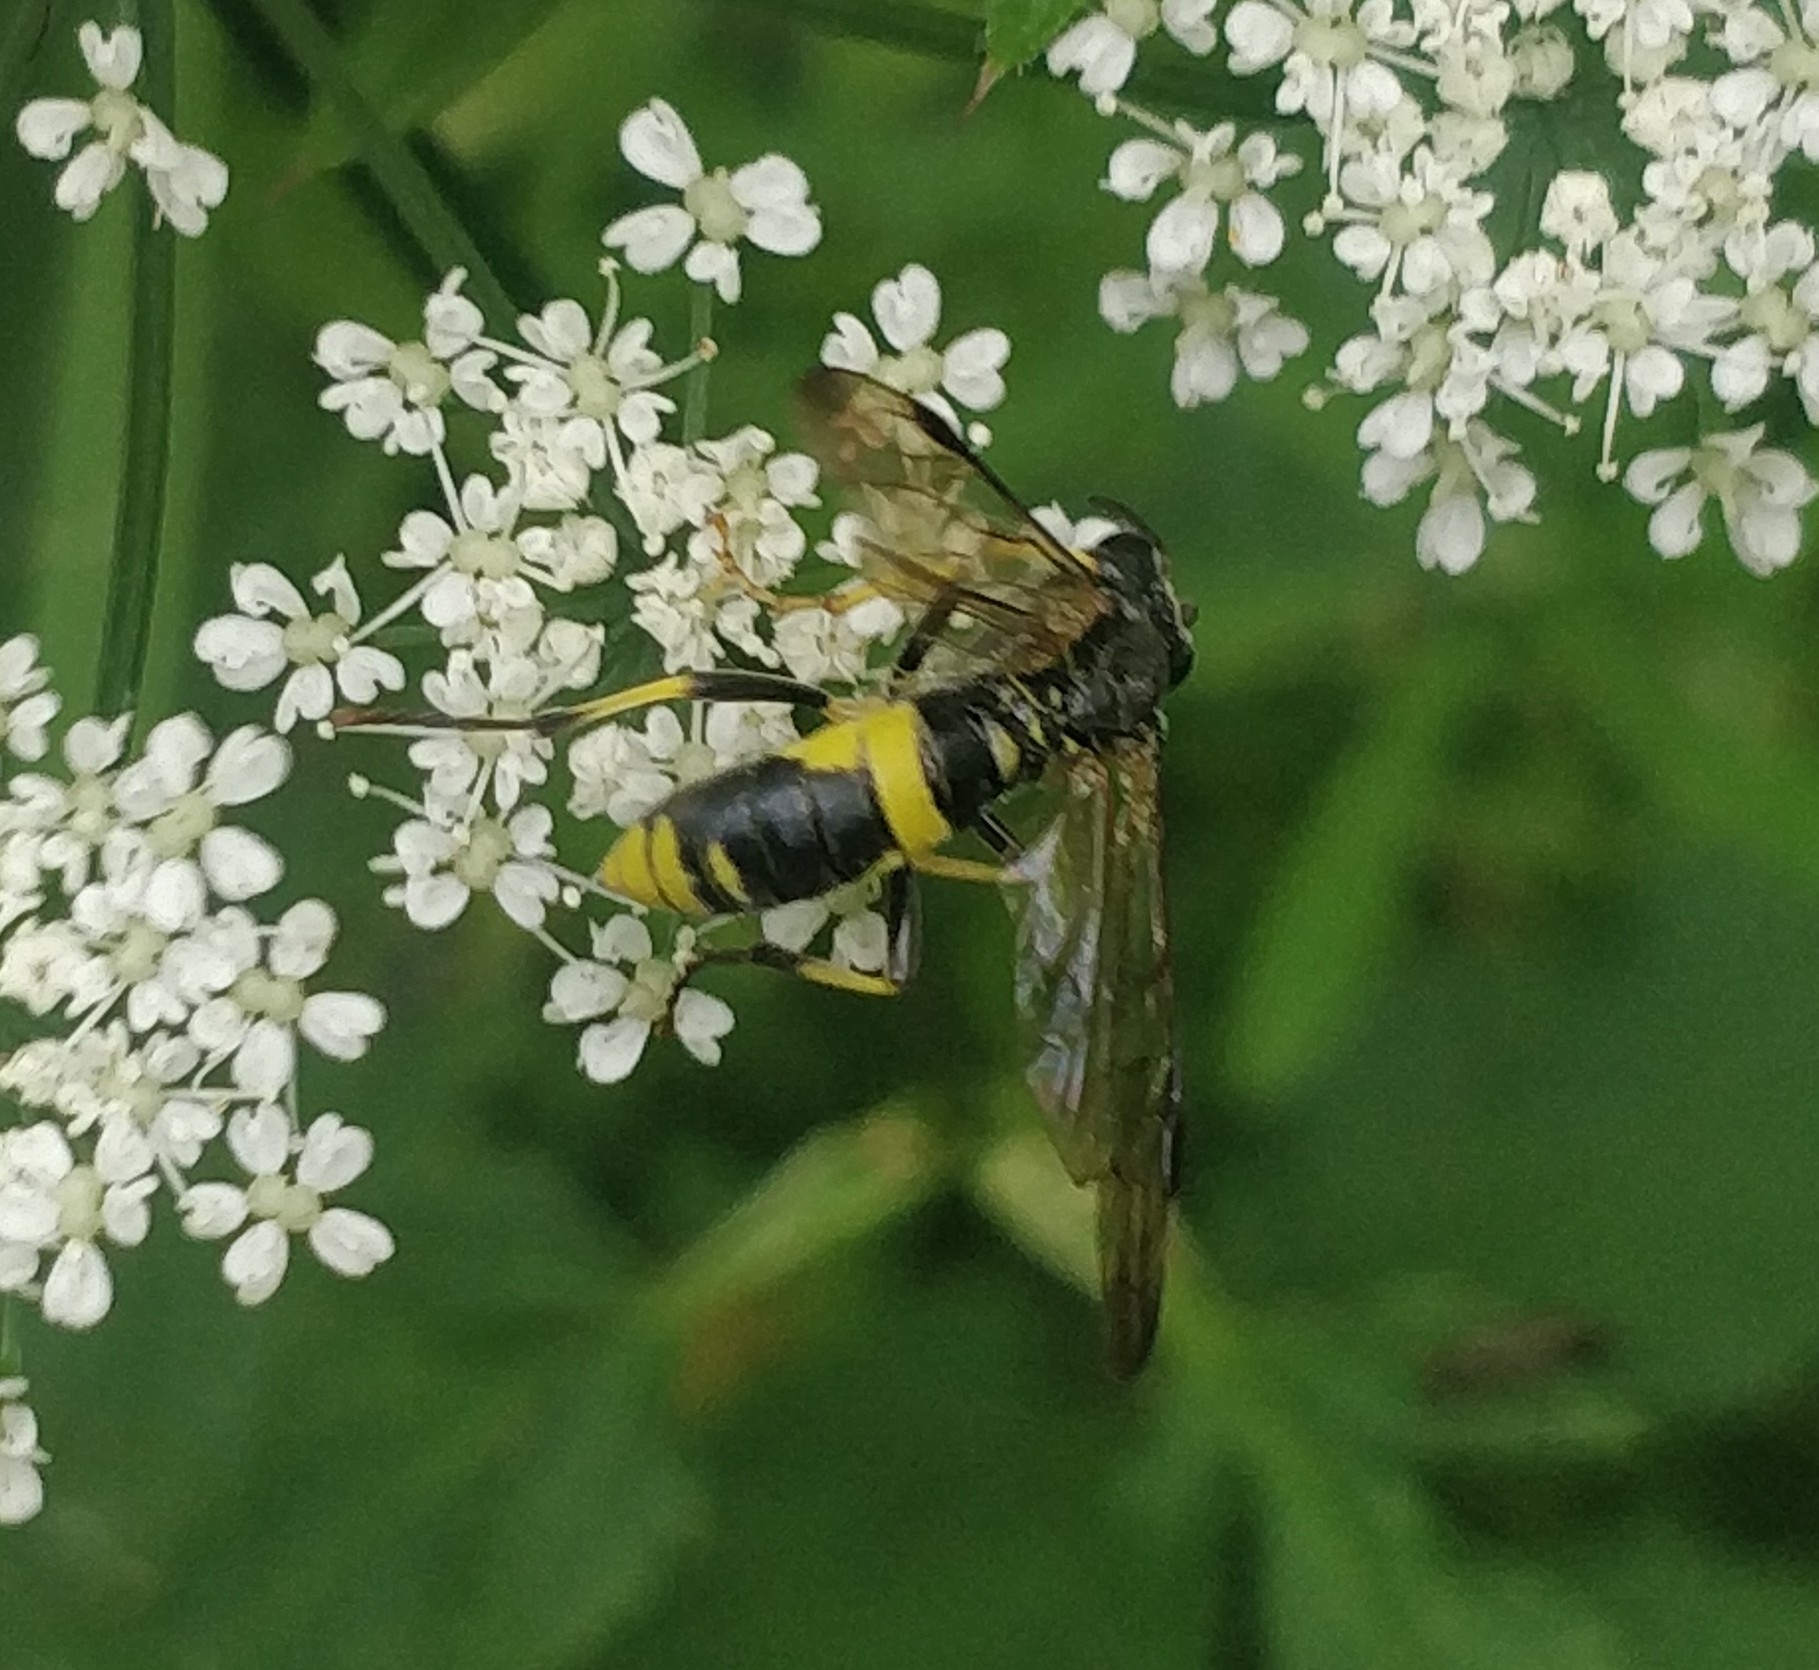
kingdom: Animalia
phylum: Arthropoda
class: Insecta
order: Hymenoptera
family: Tenthredinidae
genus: Tenthredo
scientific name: Tenthredo temula
